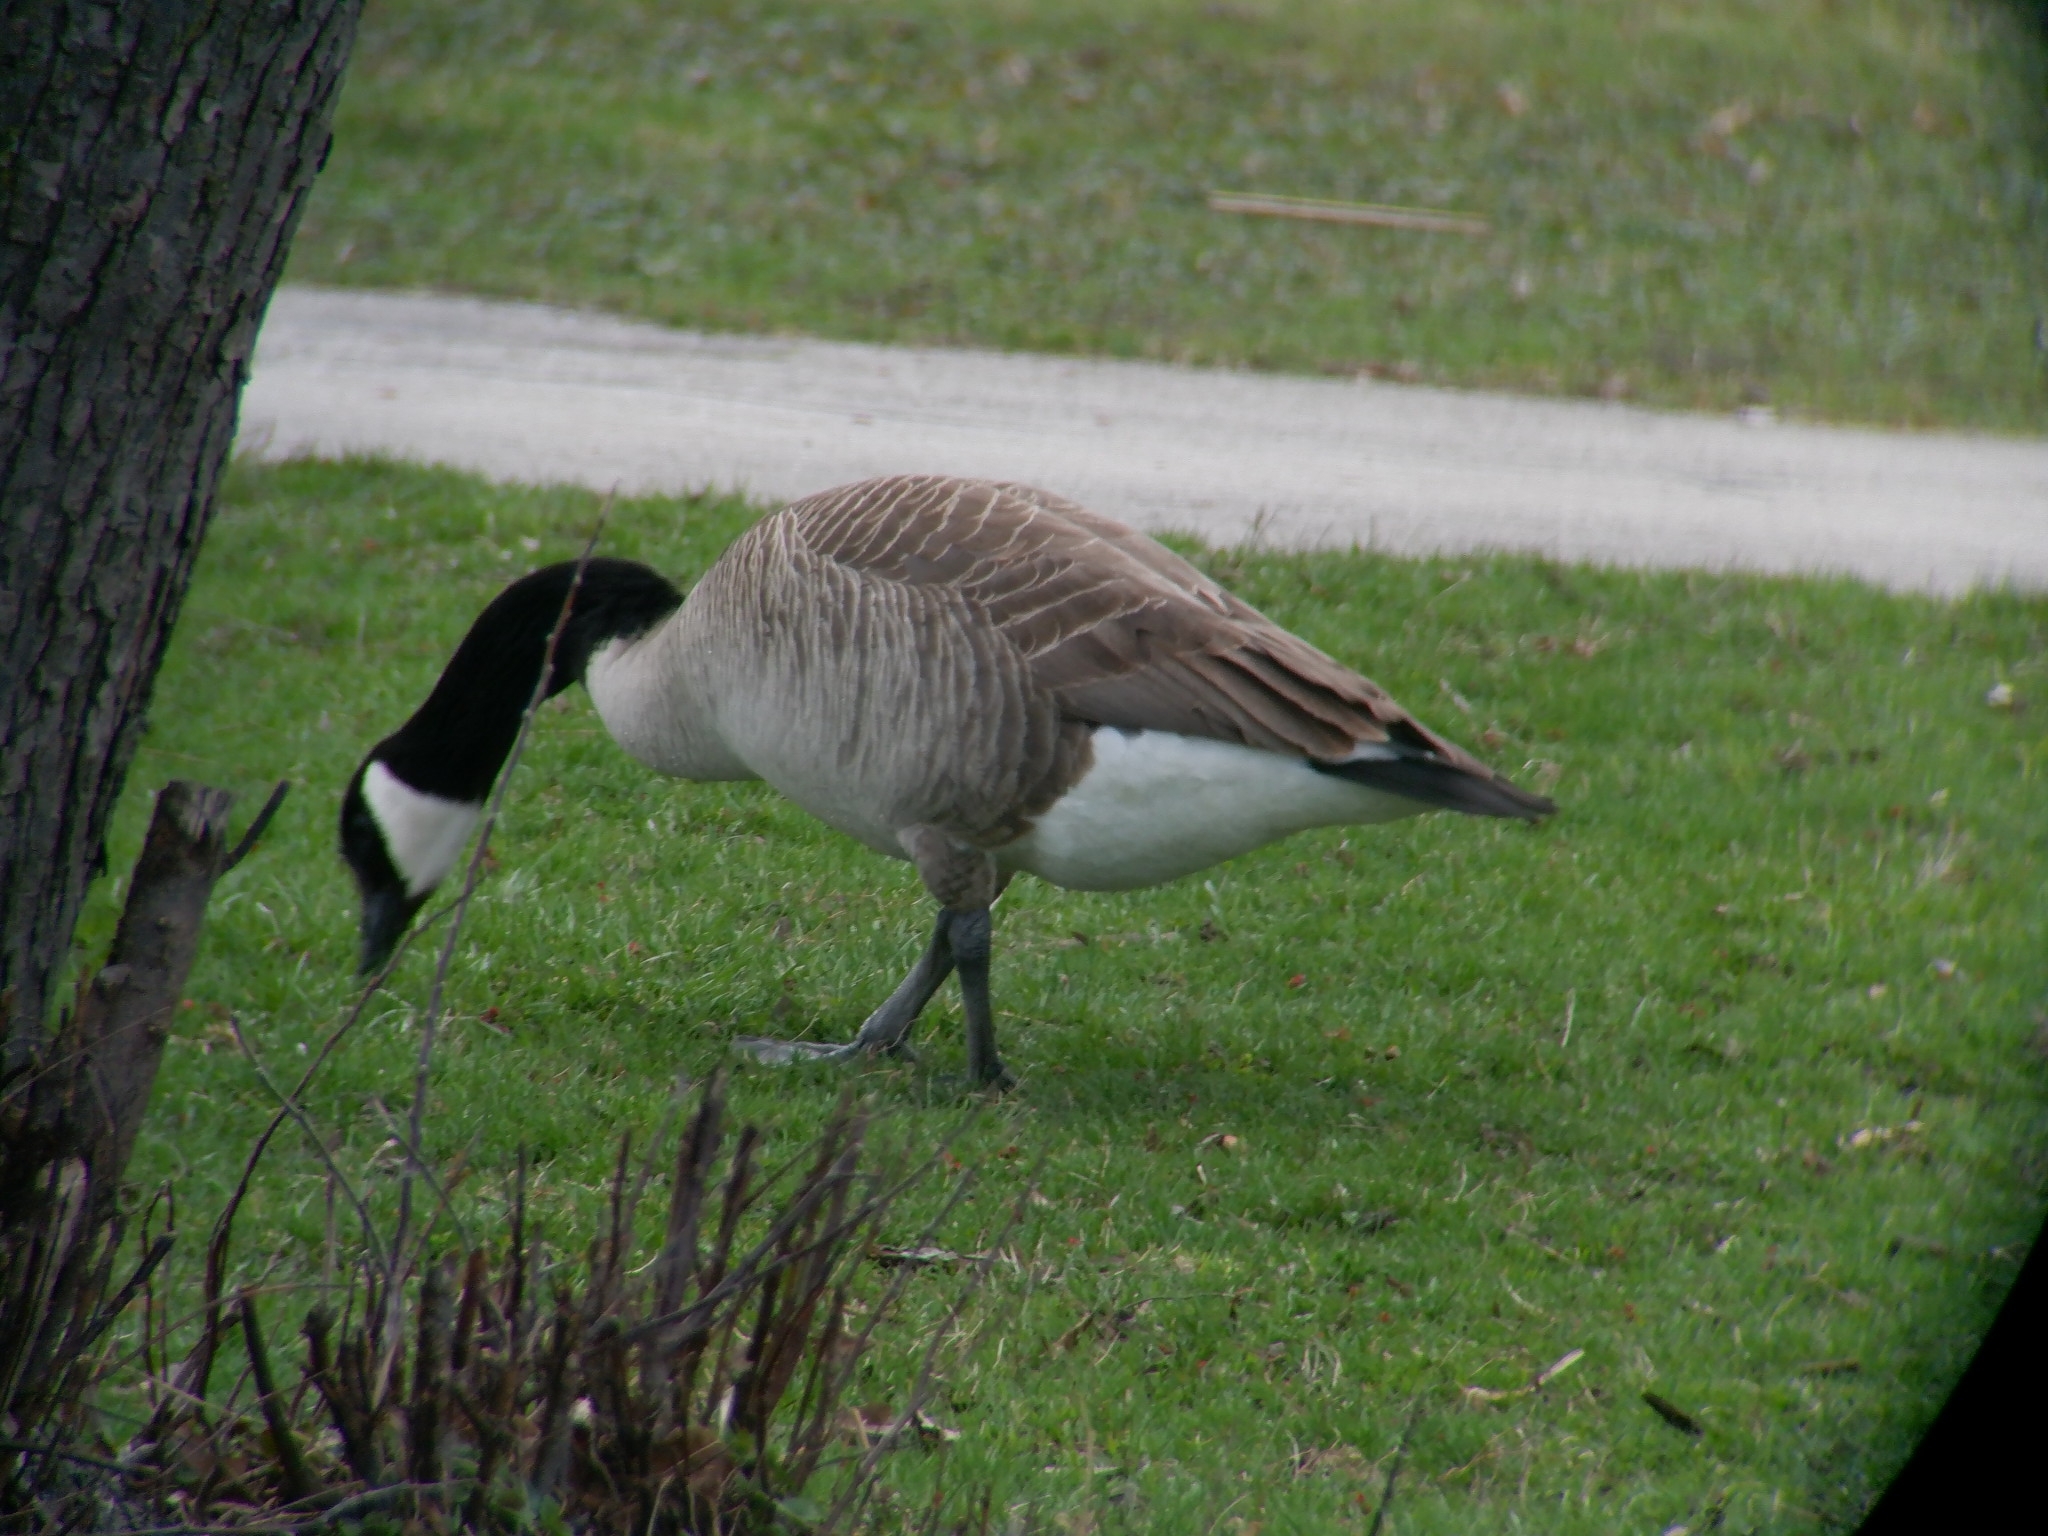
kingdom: Animalia
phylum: Chordata
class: Aves
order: Anseriformes
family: Anatidae
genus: Branta
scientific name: Branta canadensis
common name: Canada goose
